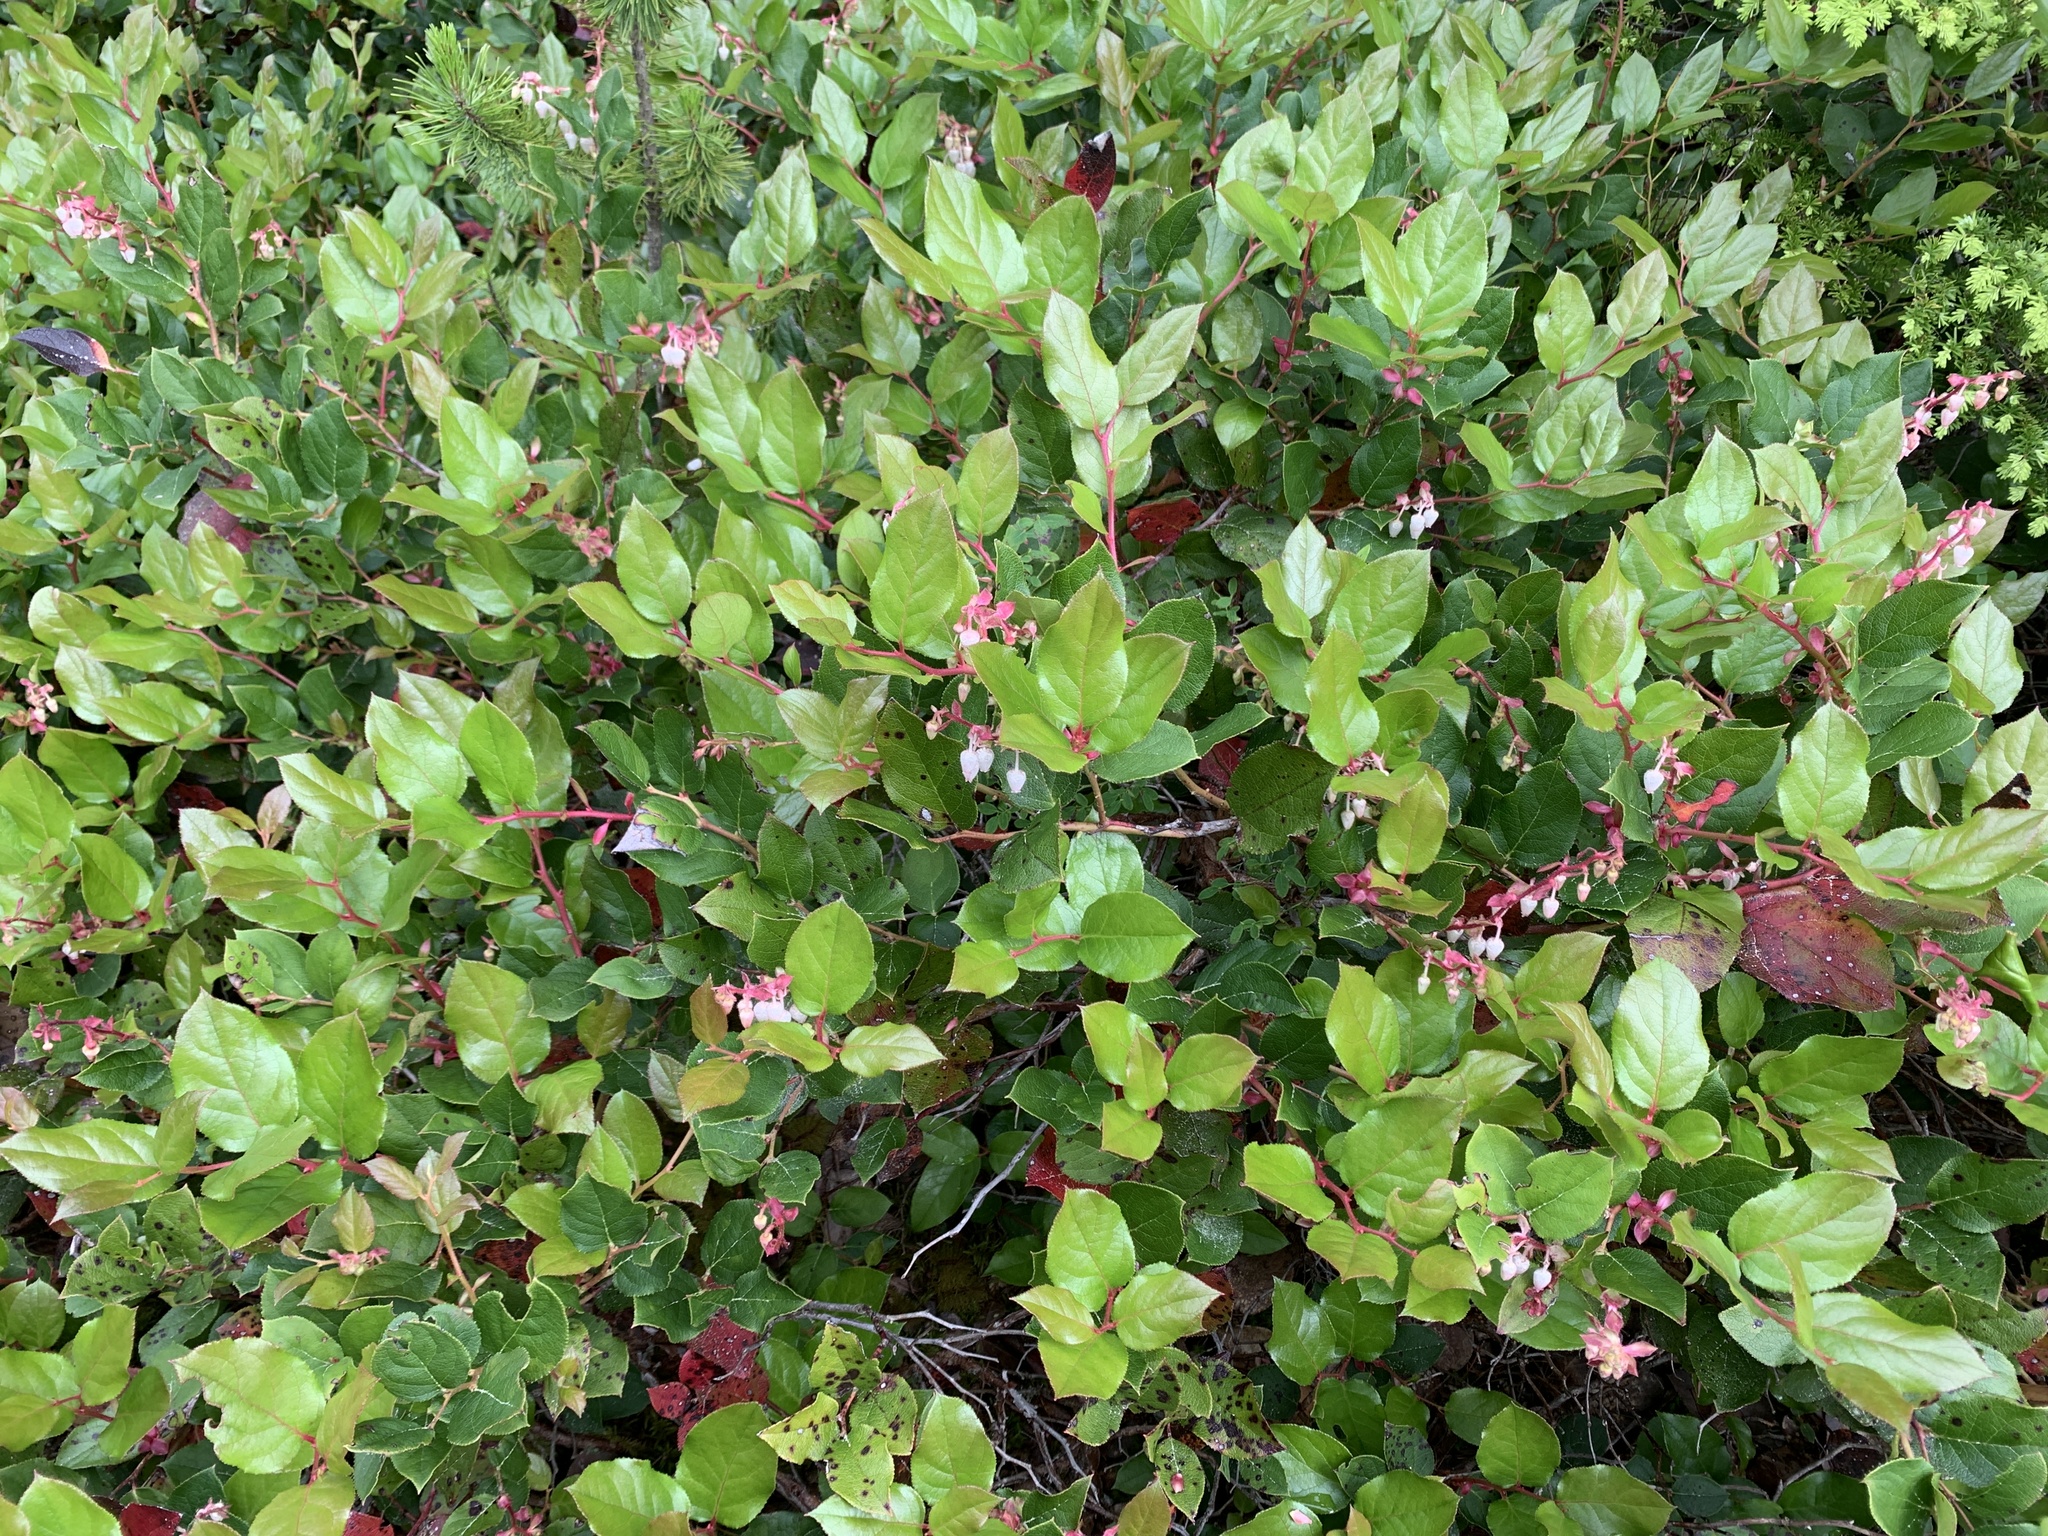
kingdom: Plantae
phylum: Tracheophyta
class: Magnoliopsida
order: Ericales
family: Ericaceae
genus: Gaultheria
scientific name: Gaultheria shallon
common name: Shallon
